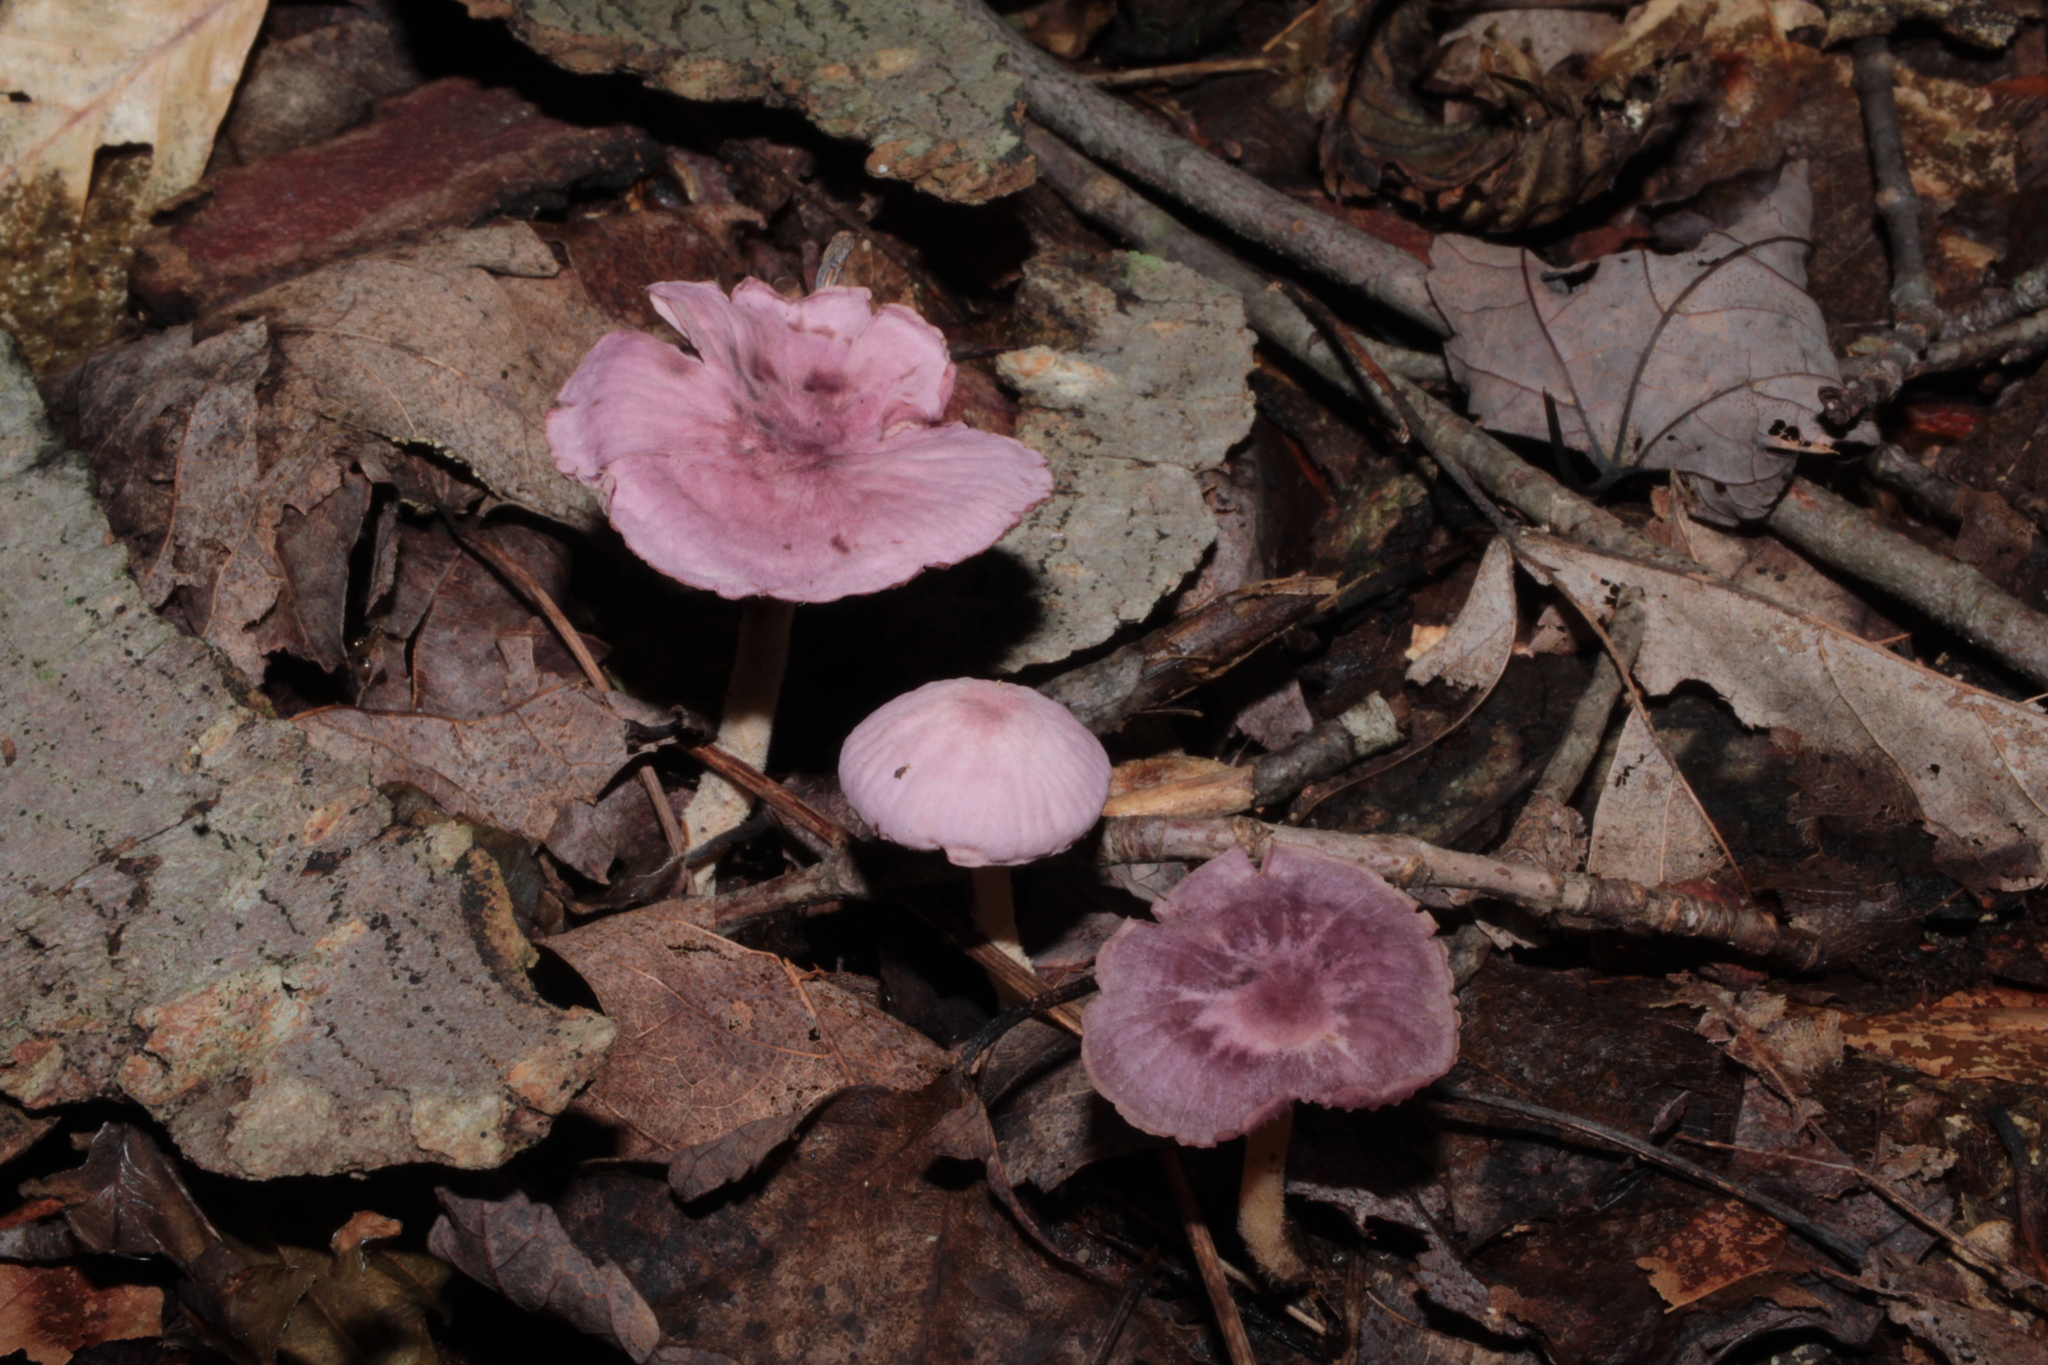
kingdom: Fungi
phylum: Basidiomycota
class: Agaricomycetes
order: Agaricales
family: Omphalotaceae
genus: Gymnopus
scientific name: Gymnopus iocephalus
